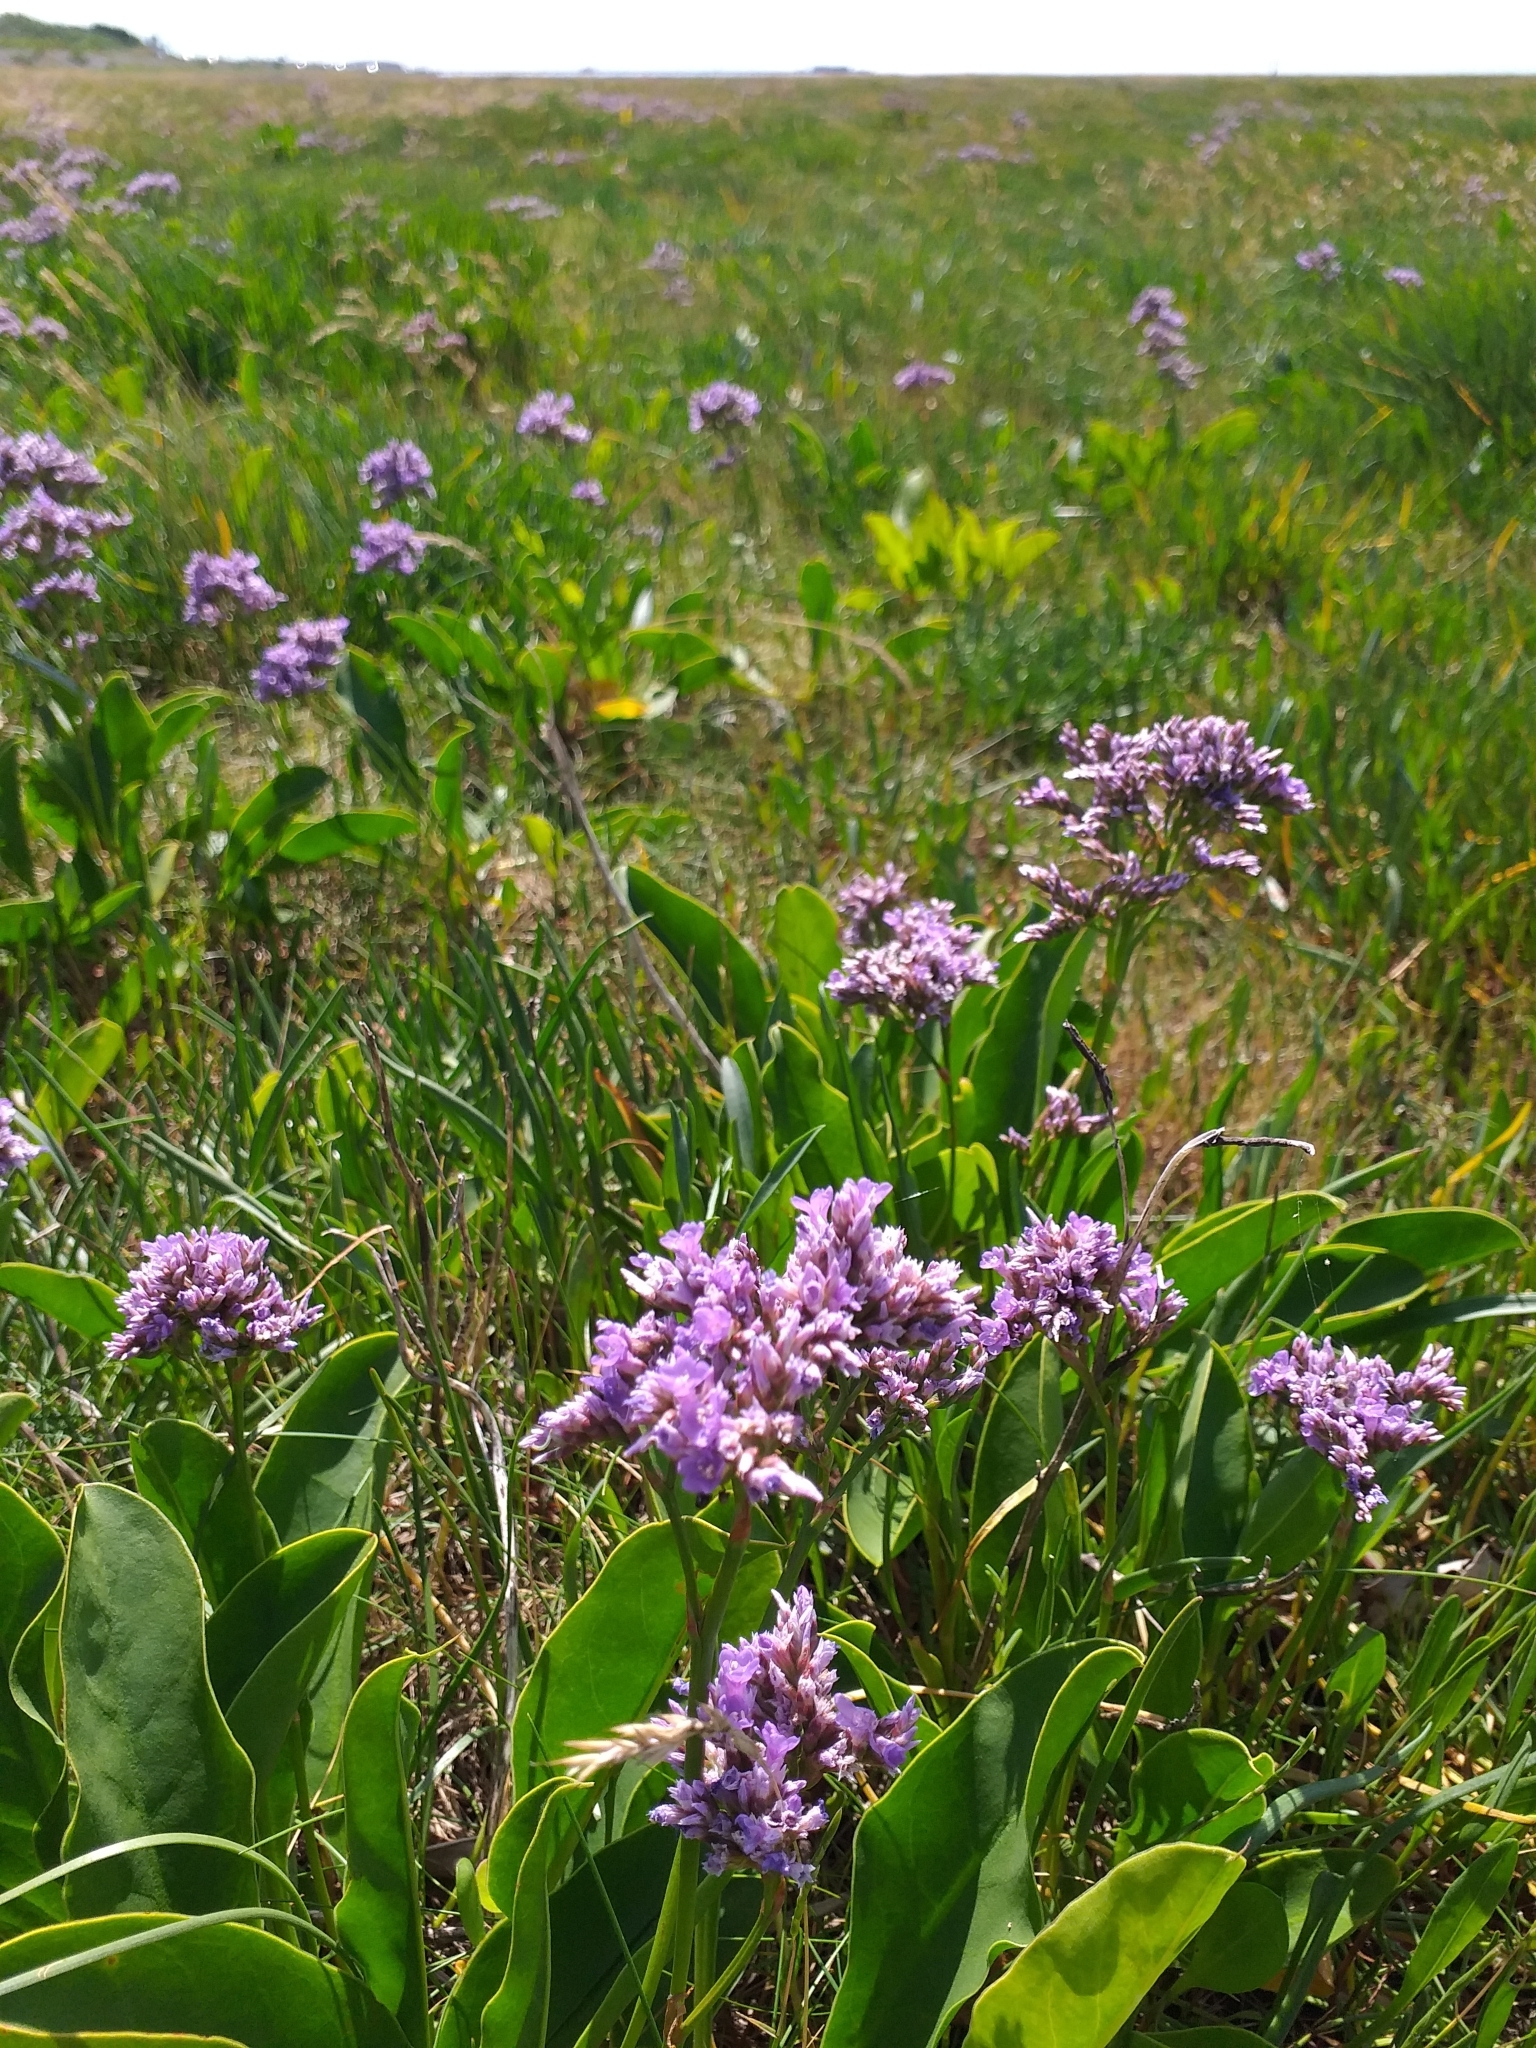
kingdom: Plantae
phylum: Tracheophyta
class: Magnoliopsida
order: Caryophyllales
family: Plumbaginaceae
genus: Limonium
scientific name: Limonium vulgare
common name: Common sea-lavender
